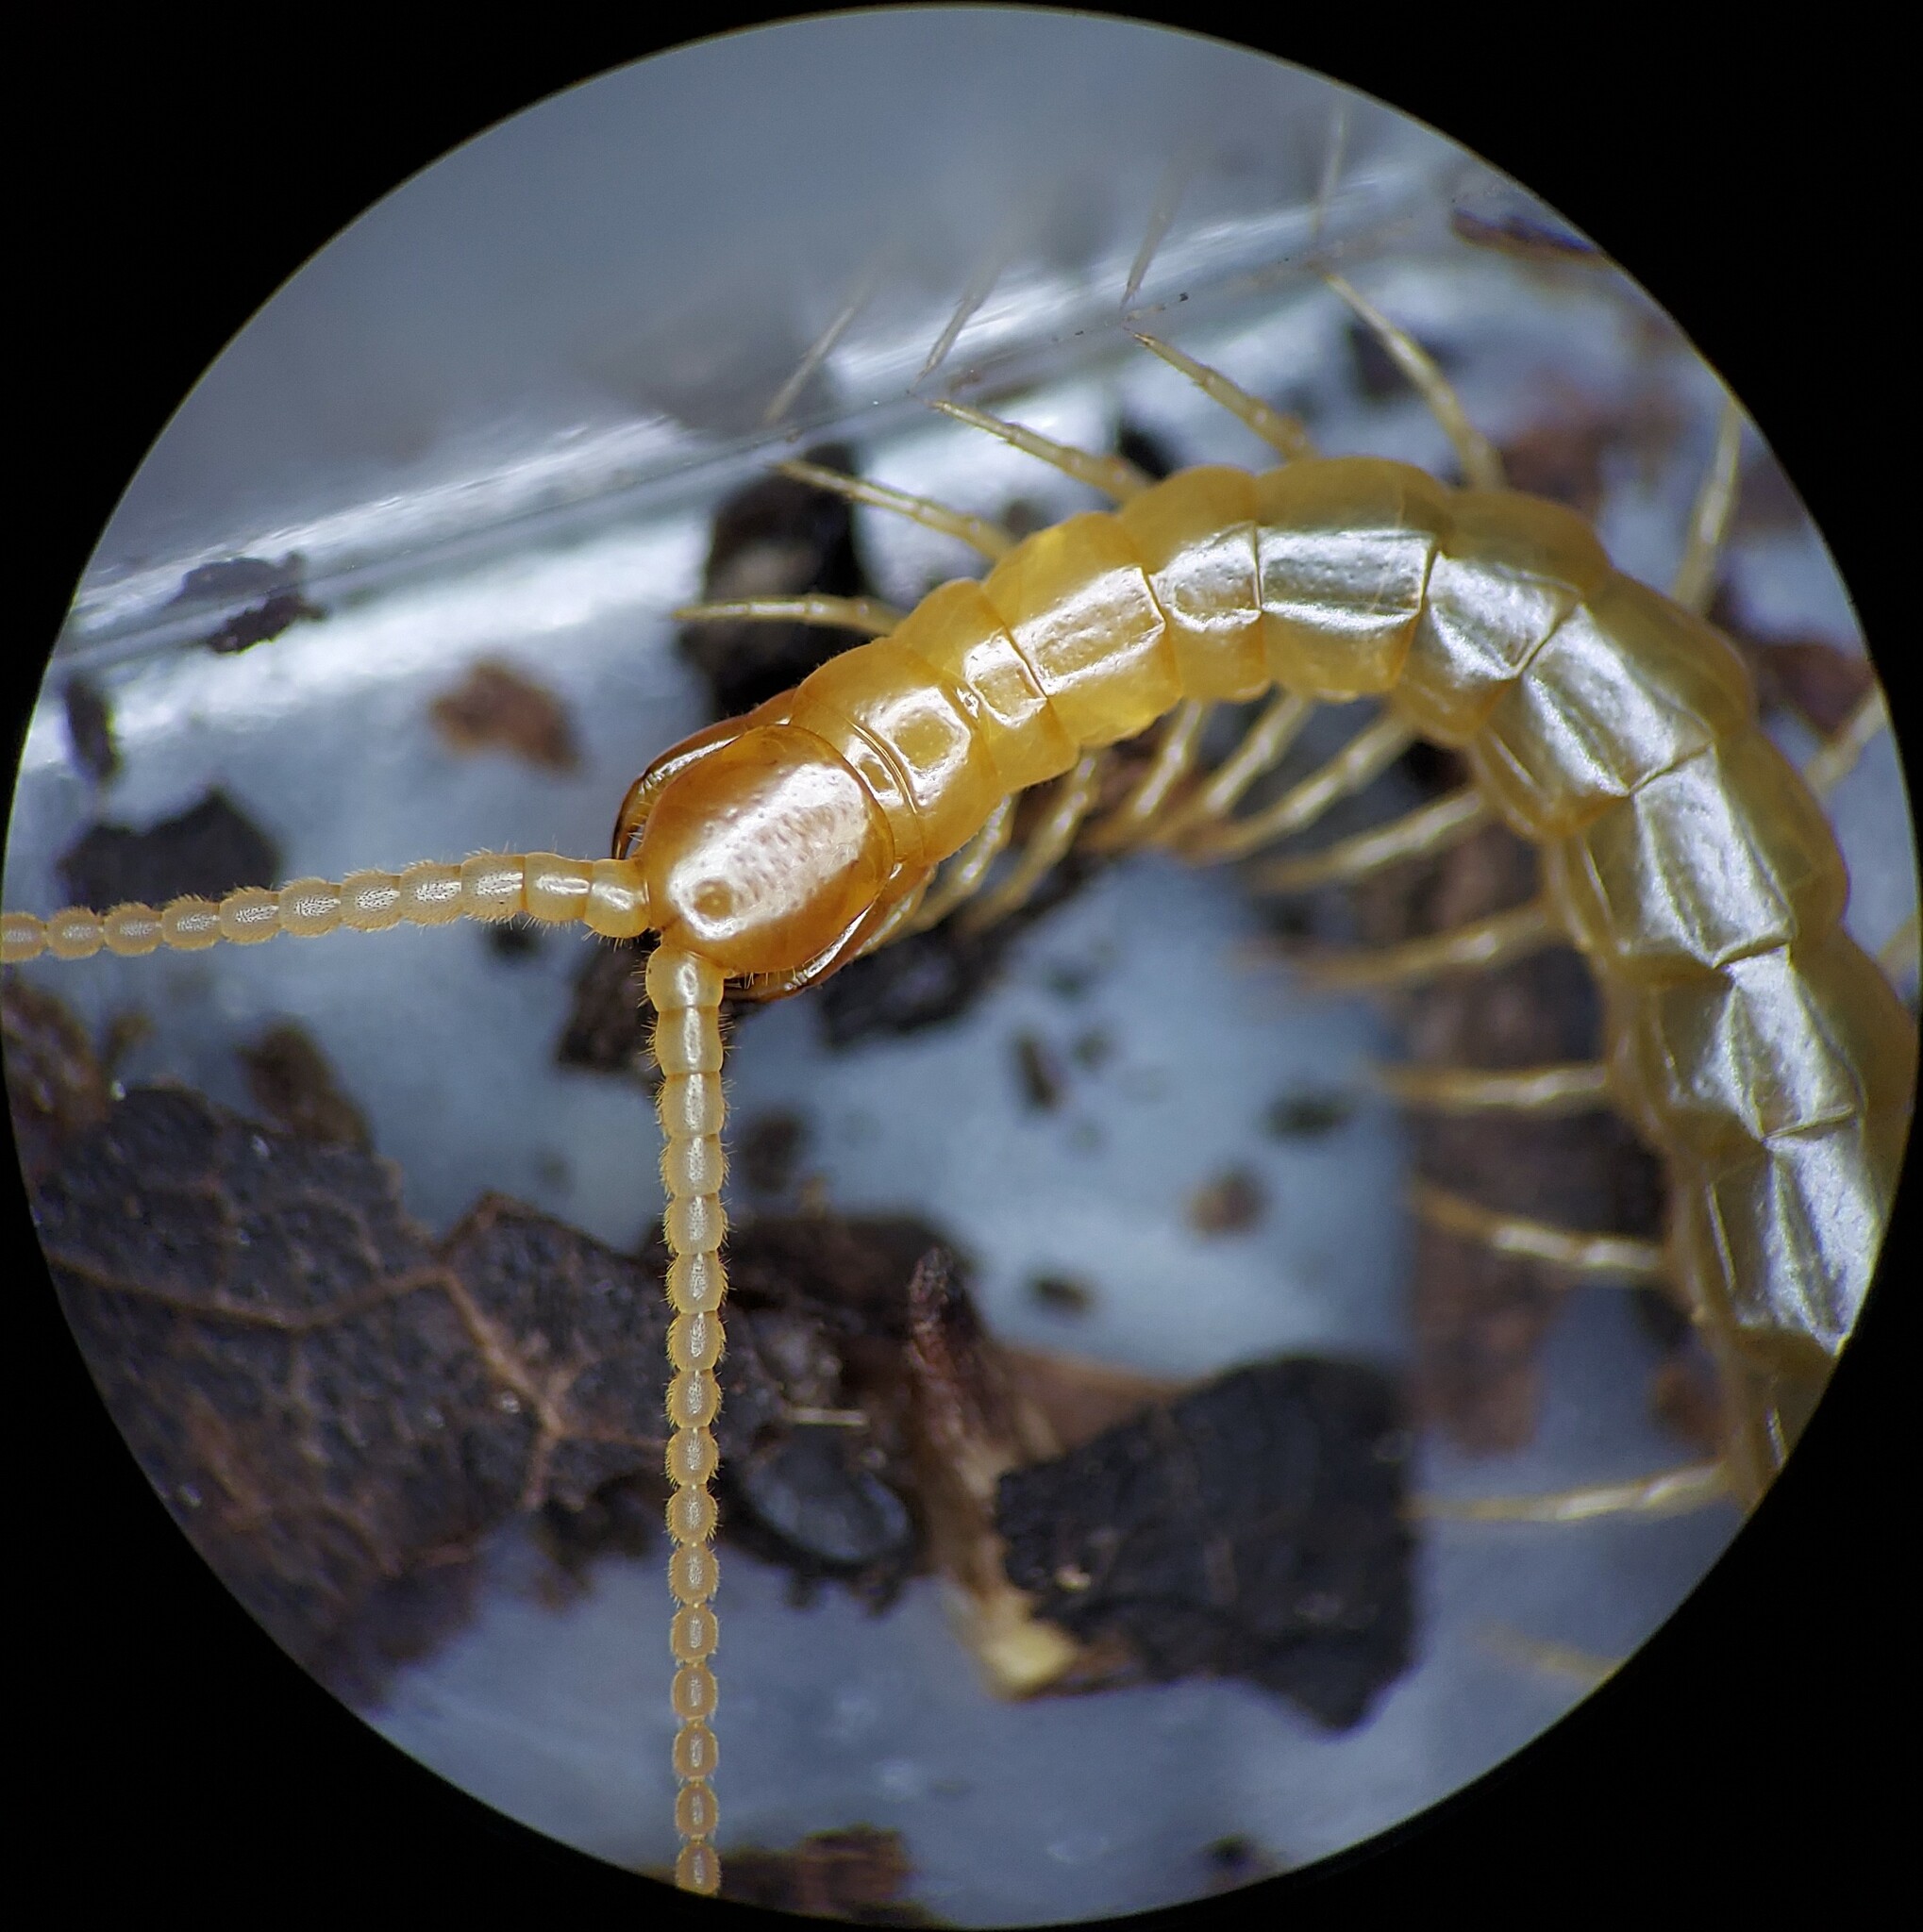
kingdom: Animalia
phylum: Arthropoda
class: Chilopoda
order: Scolopendromorpha
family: Scolopocryptopidae
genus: Scolopocryptops
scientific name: Scolopocryptops peregrinator
